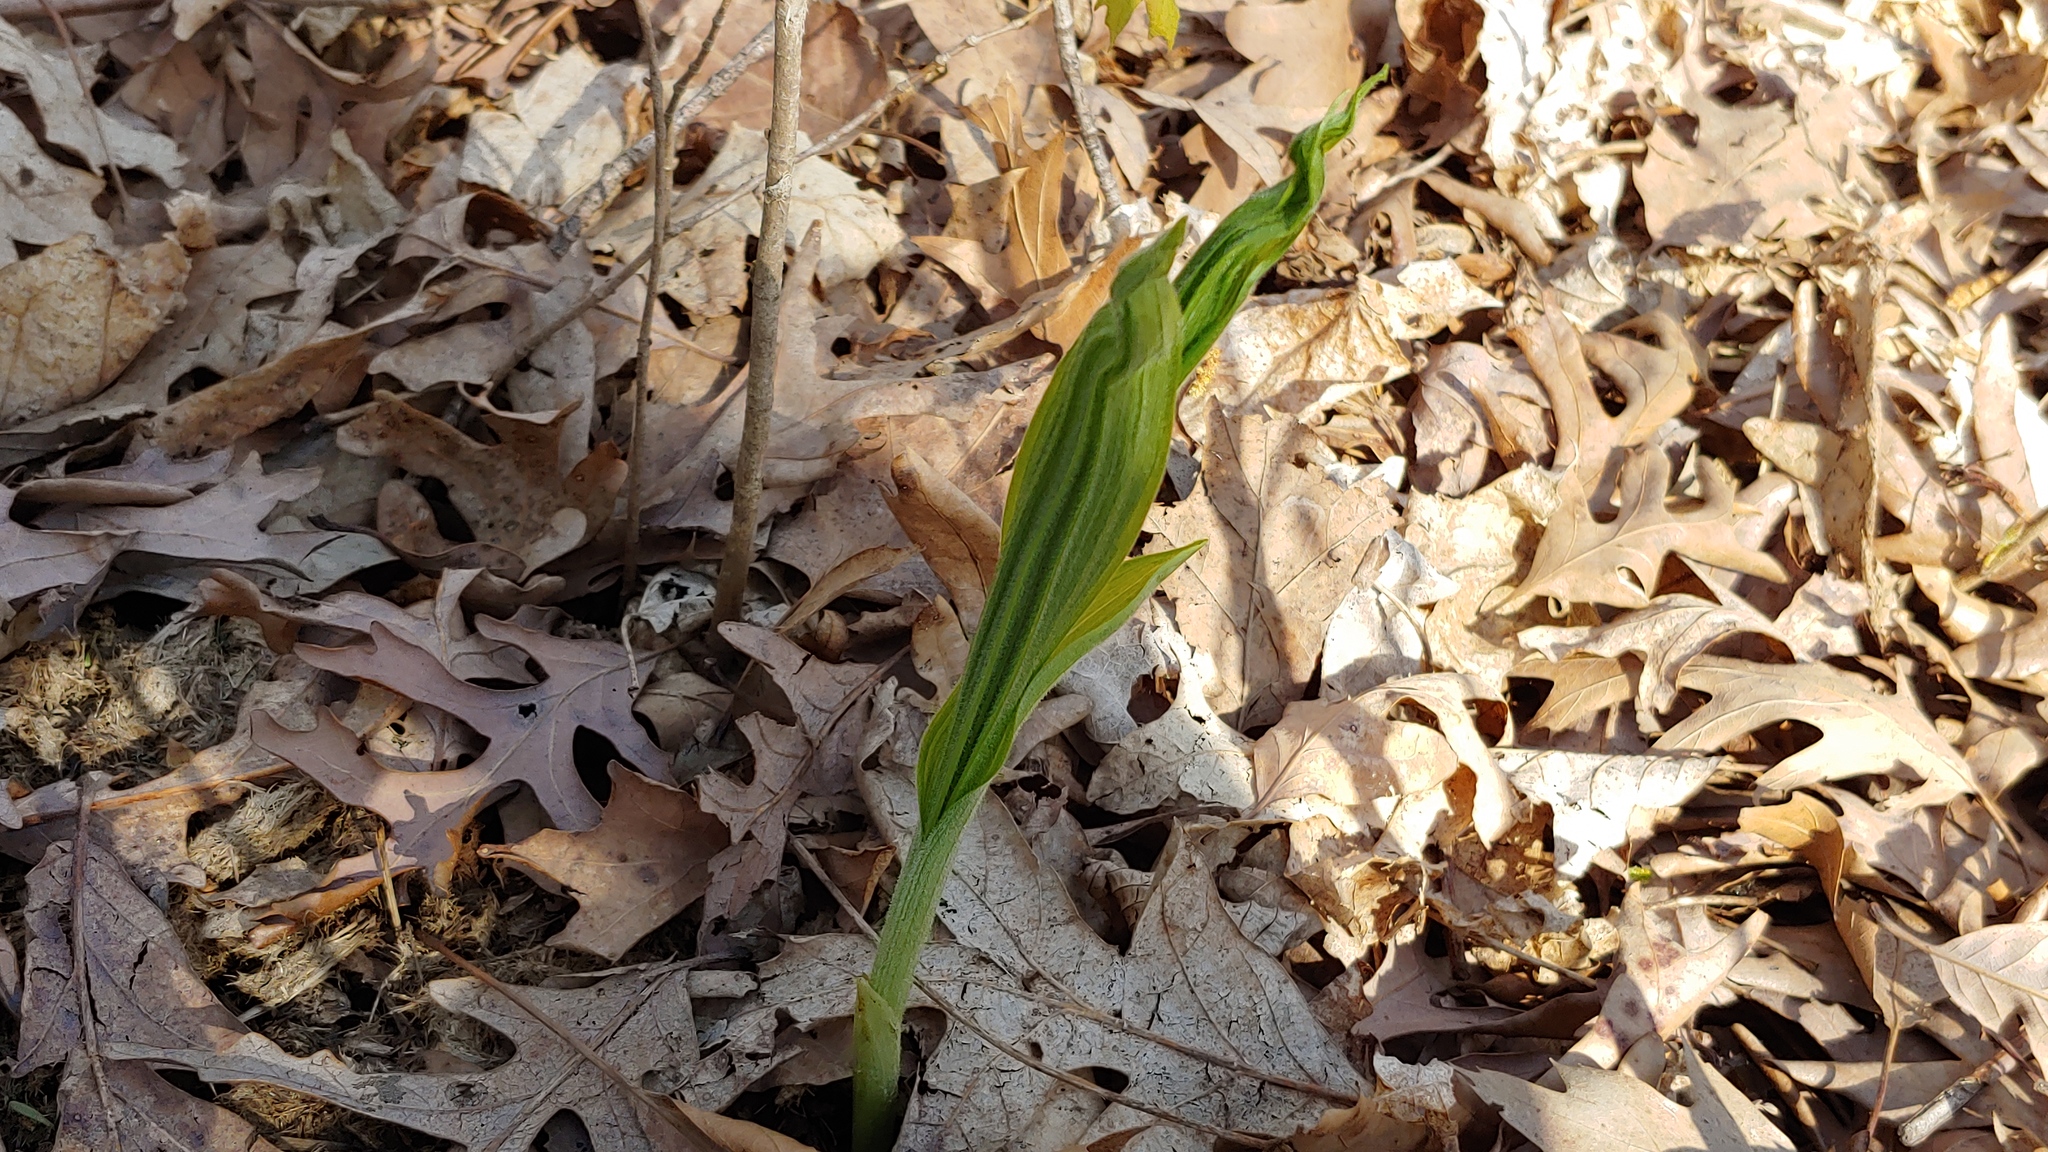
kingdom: Plantae
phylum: Tracheophyta
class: Liliopsida
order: Asparagales
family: Orchidaceae
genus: Cypripedium
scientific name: Cypripedium parviflorum
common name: American yellow lady's-slipper
